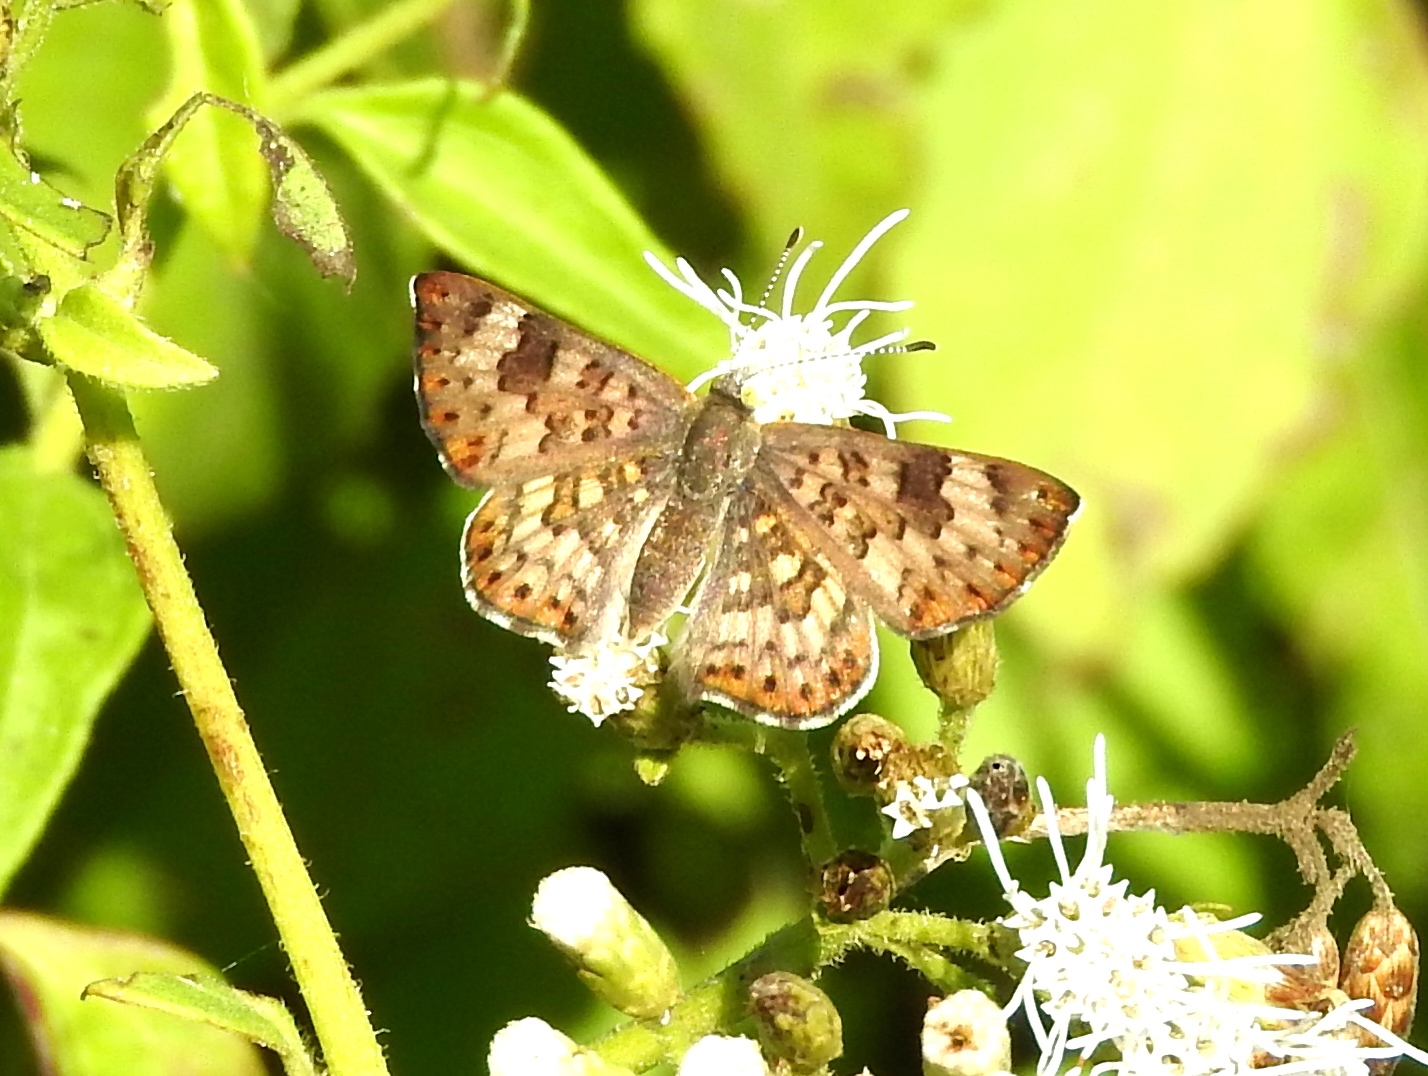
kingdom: Animalia
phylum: Arthropoda
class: Insecta
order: Lepidoptera
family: Riodinidae
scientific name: Riodinidae
